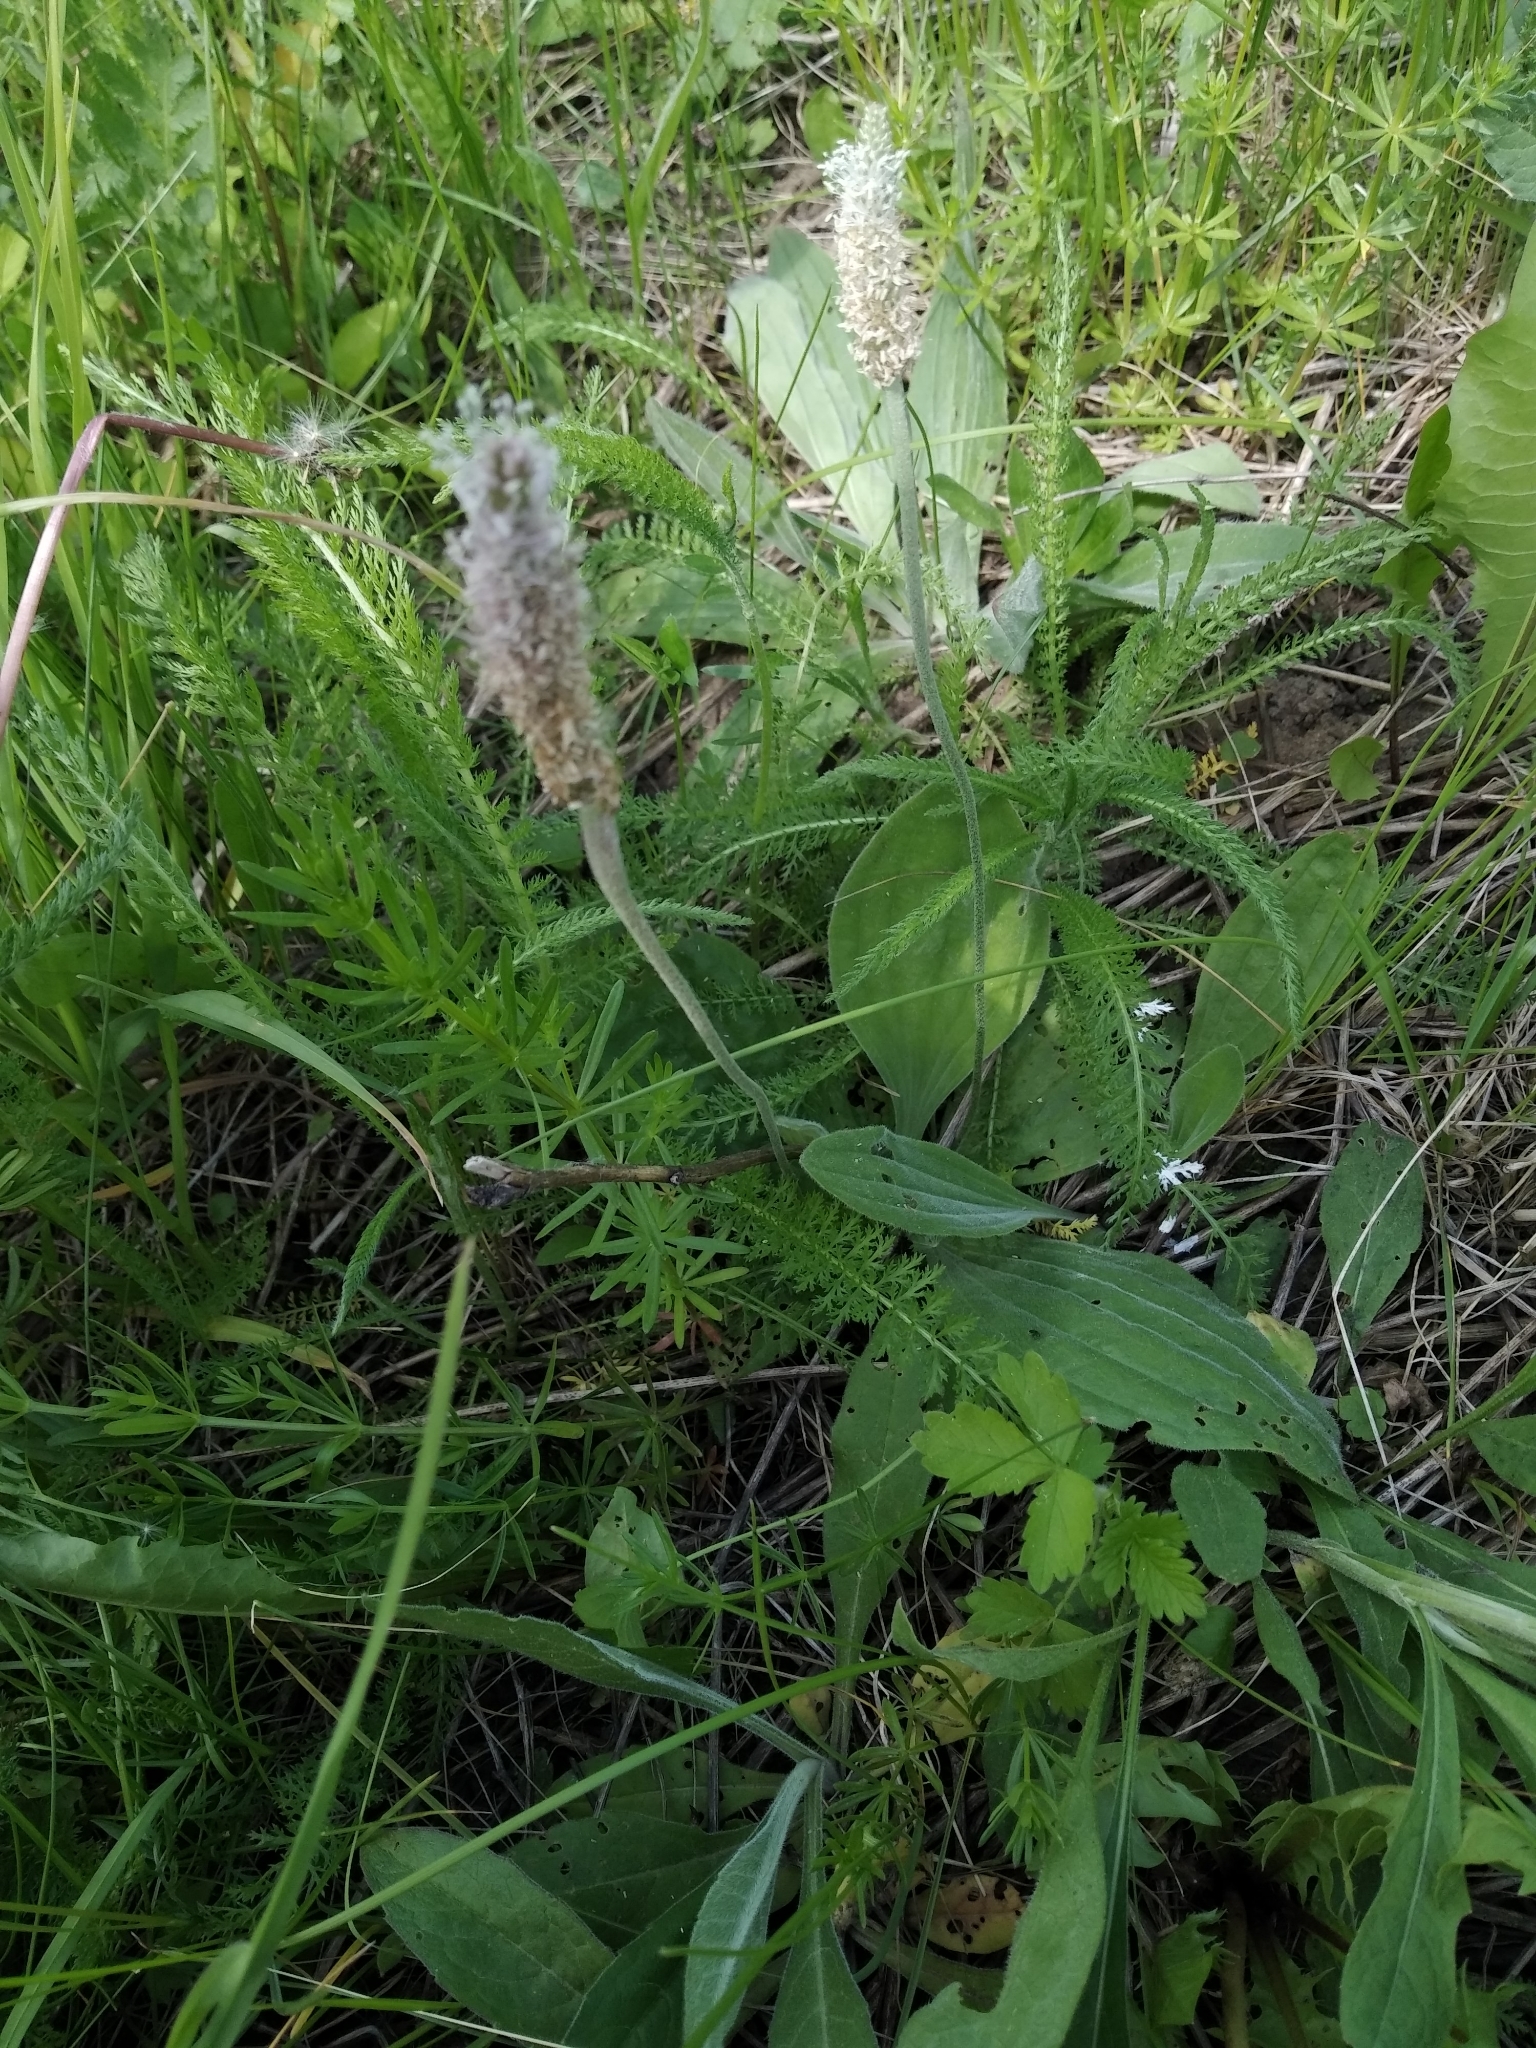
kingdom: Plantae
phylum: Tracheophyta
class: Magnoliopsida
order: Lamiales
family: Plantaginaceae
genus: Plantago
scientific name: Plantago media
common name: Hoary plantain
